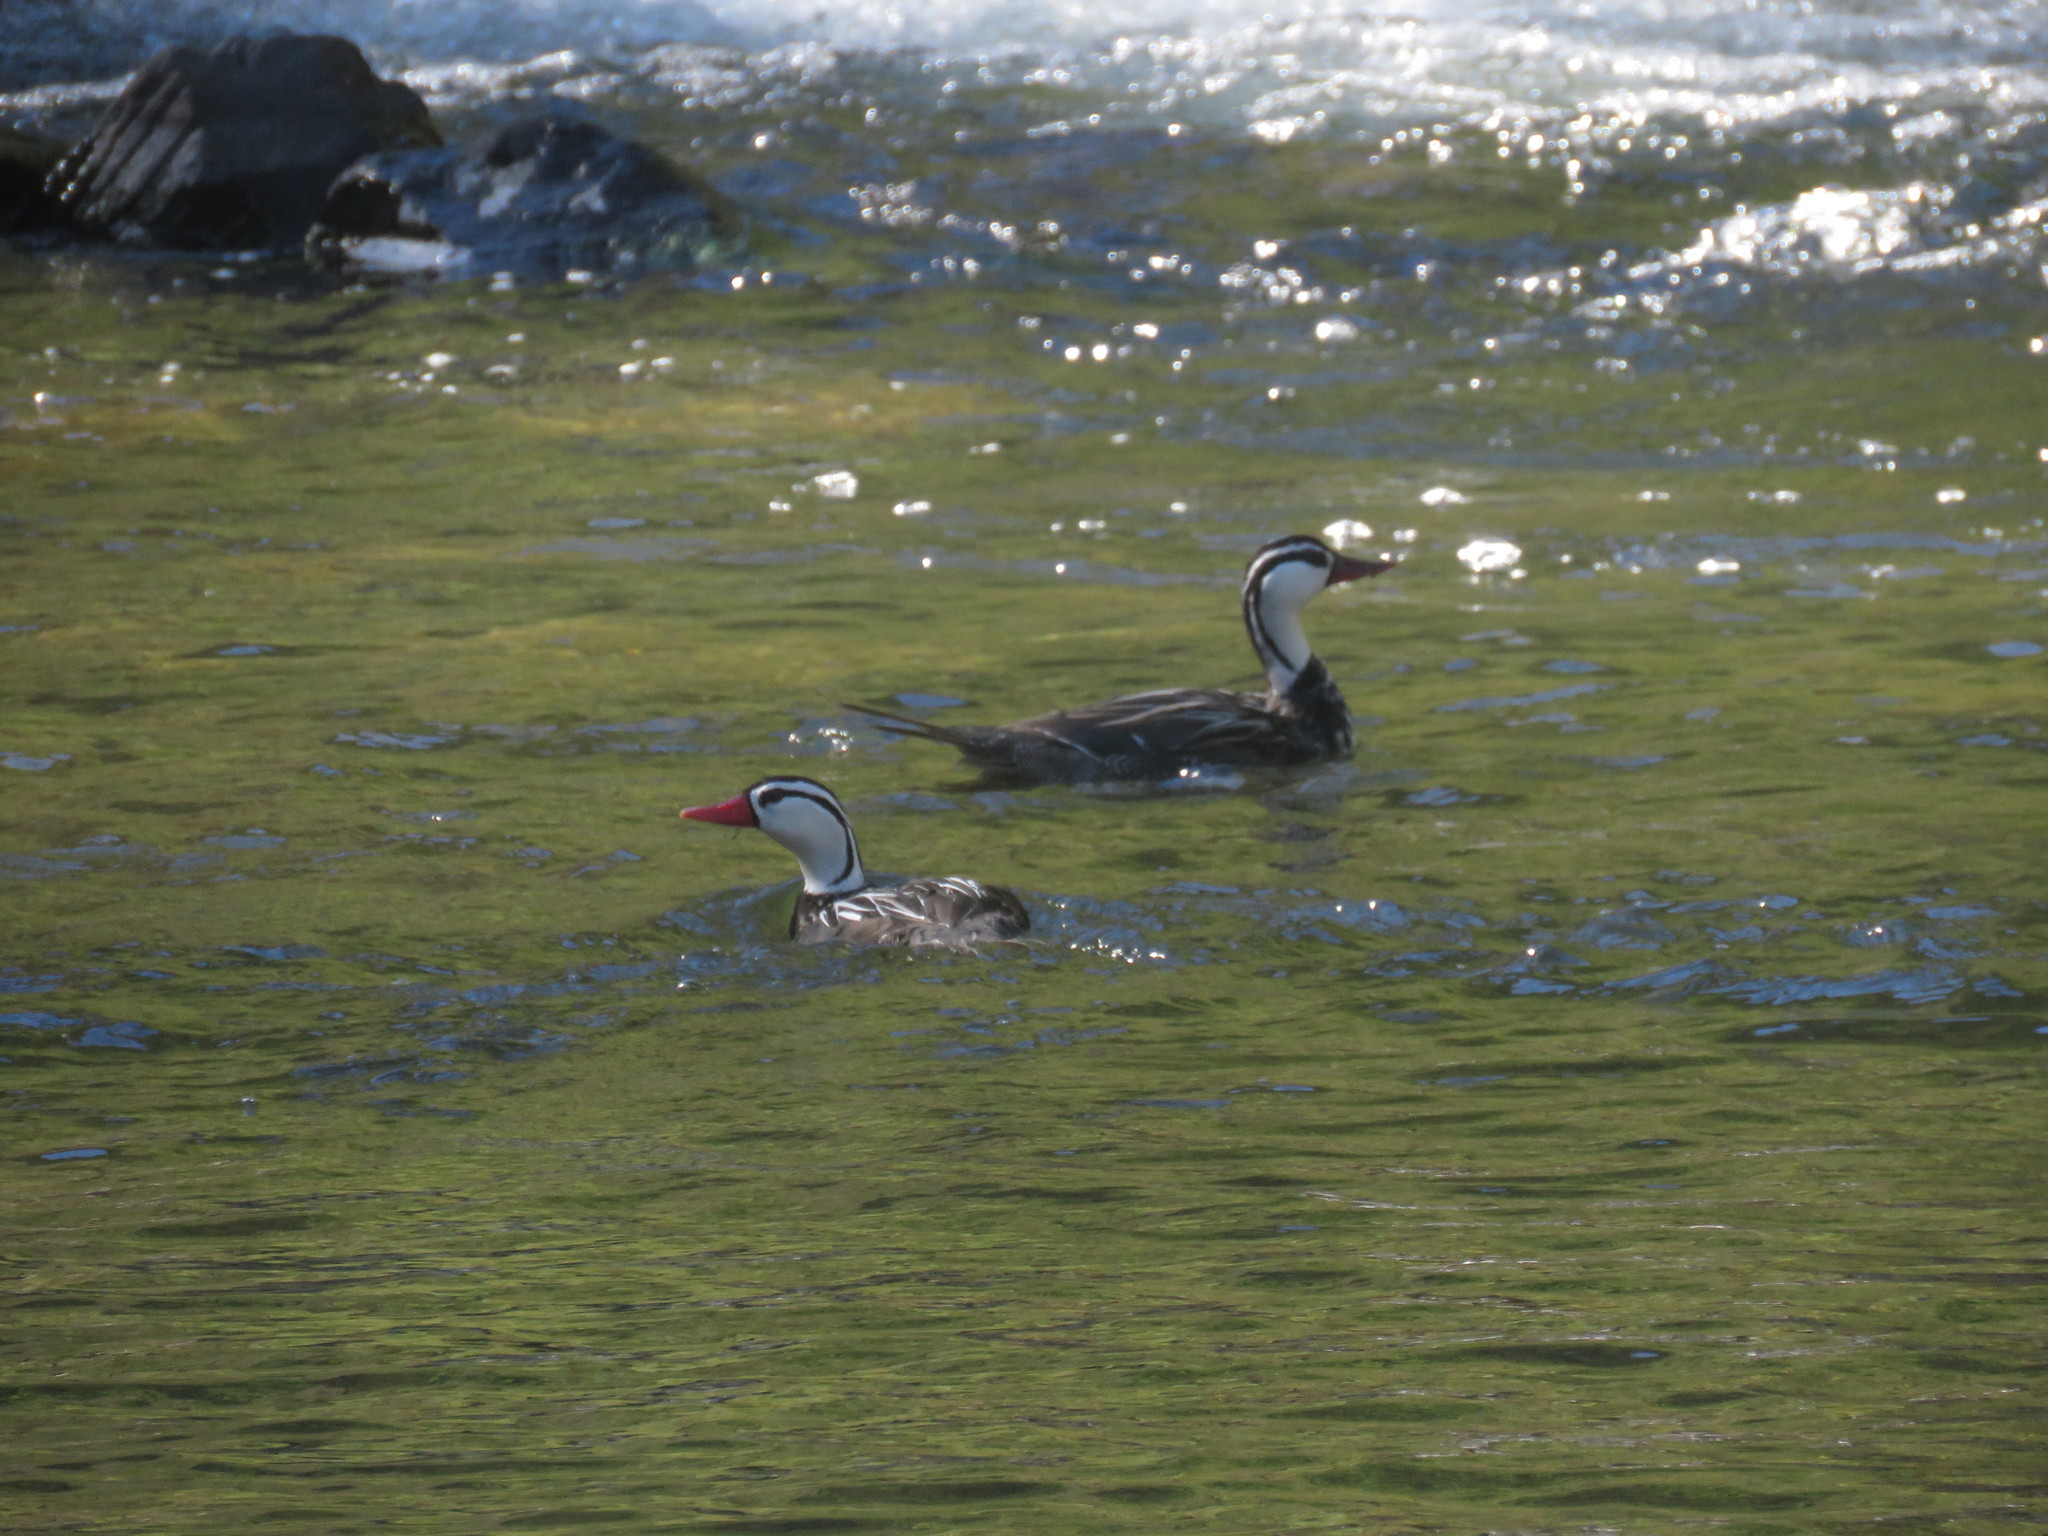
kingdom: Animalia
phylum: Chordata
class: Aves
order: Anseriformes
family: Anatidae
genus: Merganetta
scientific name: Merganetta armata
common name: Torrent duck
